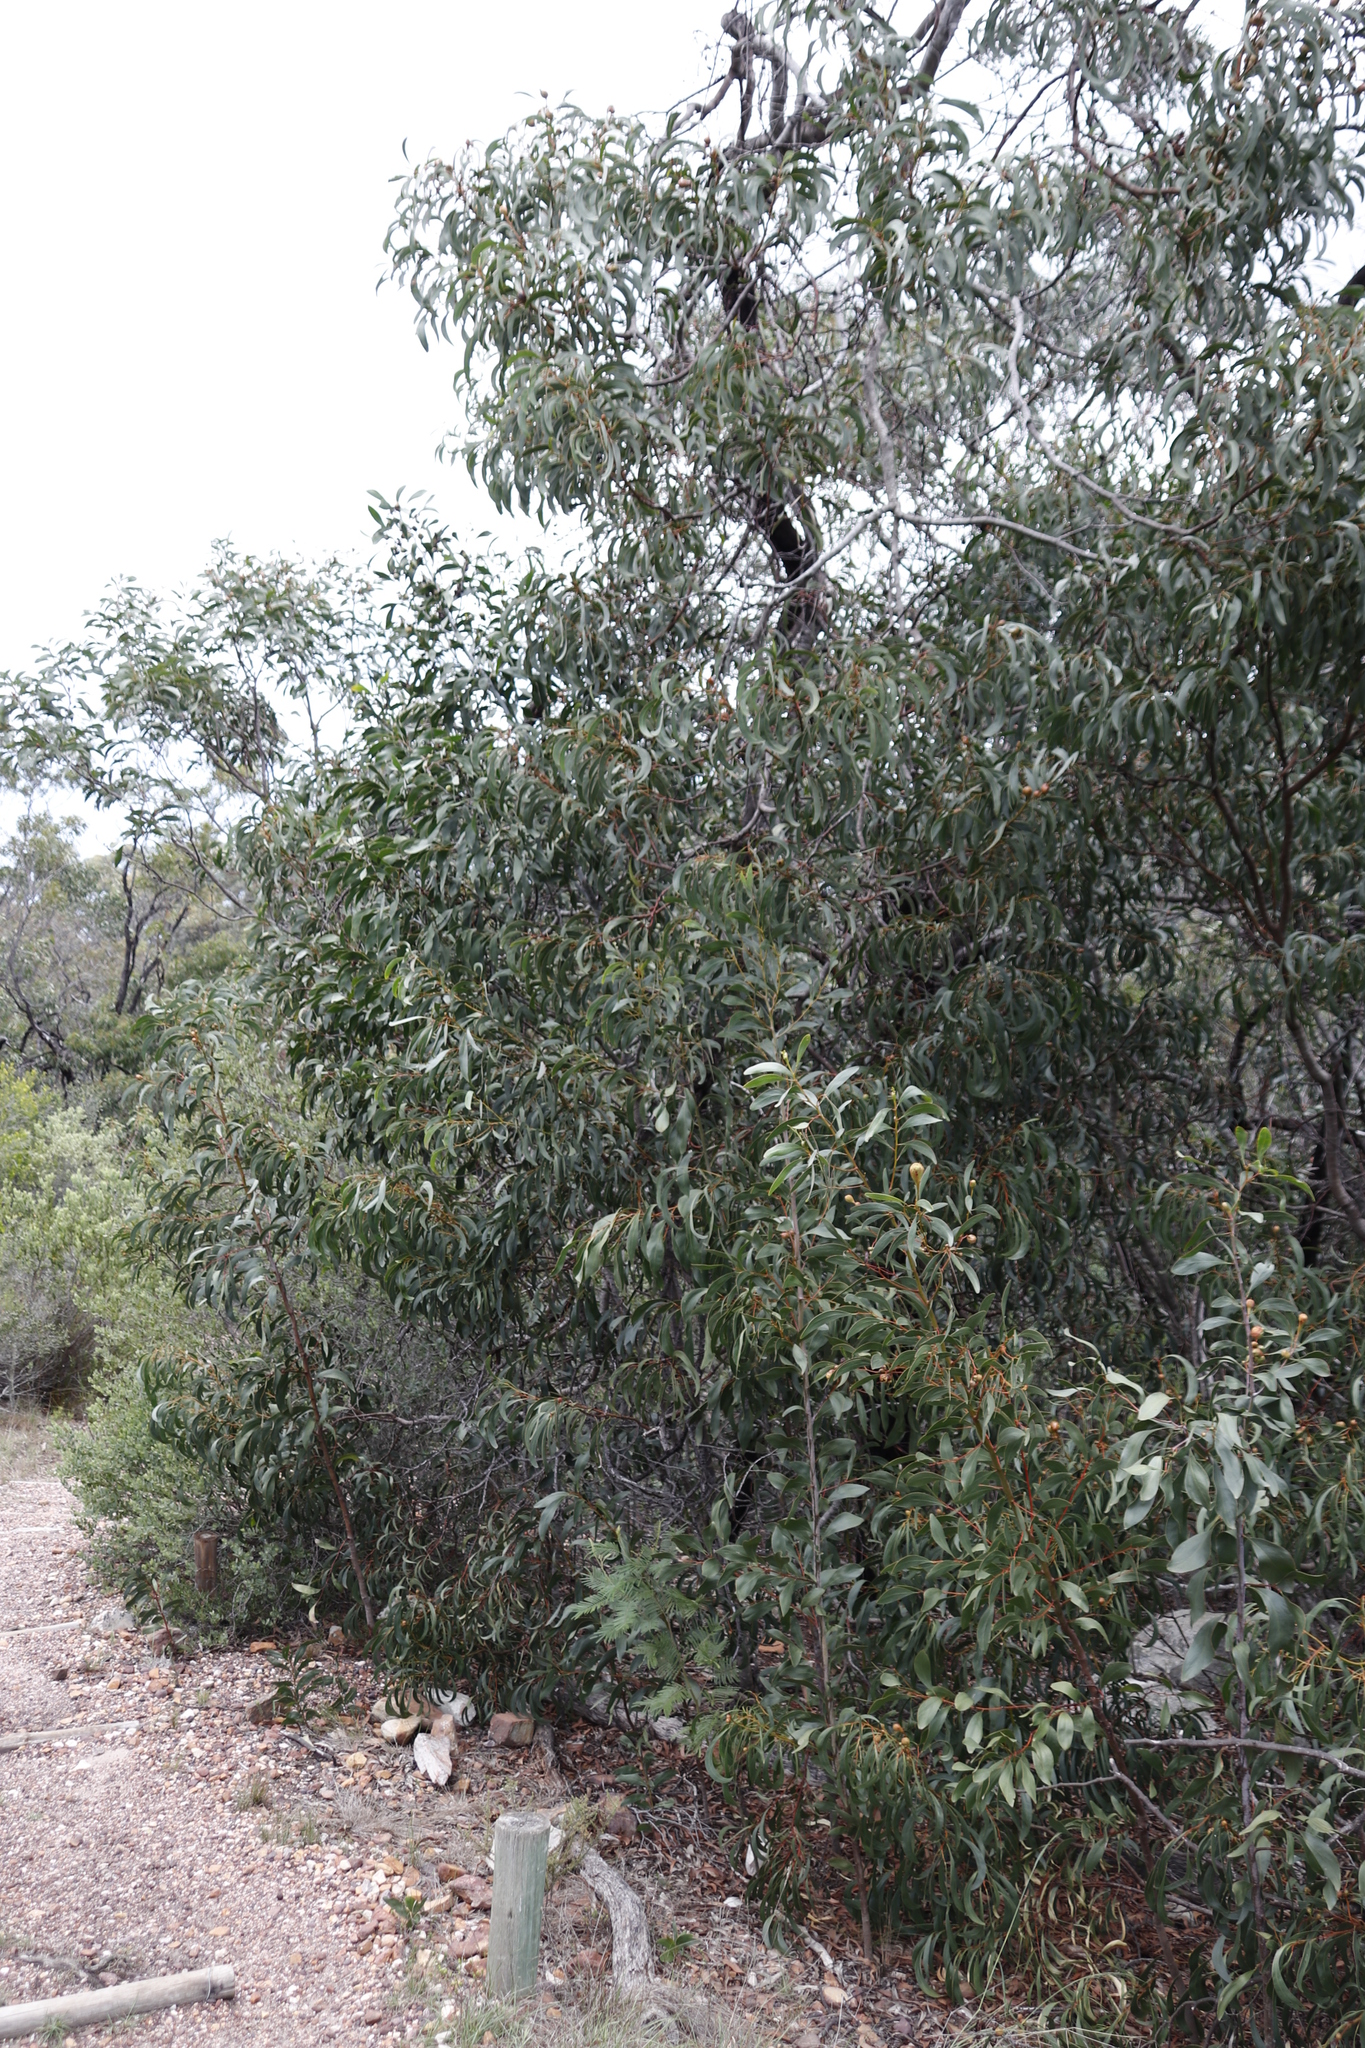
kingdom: Plantae
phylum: Tracheophyta
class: Magnoliopsida
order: Fabales
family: Fabaceae
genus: Acacia
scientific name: Acacia pycnantha
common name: Golden wattle
